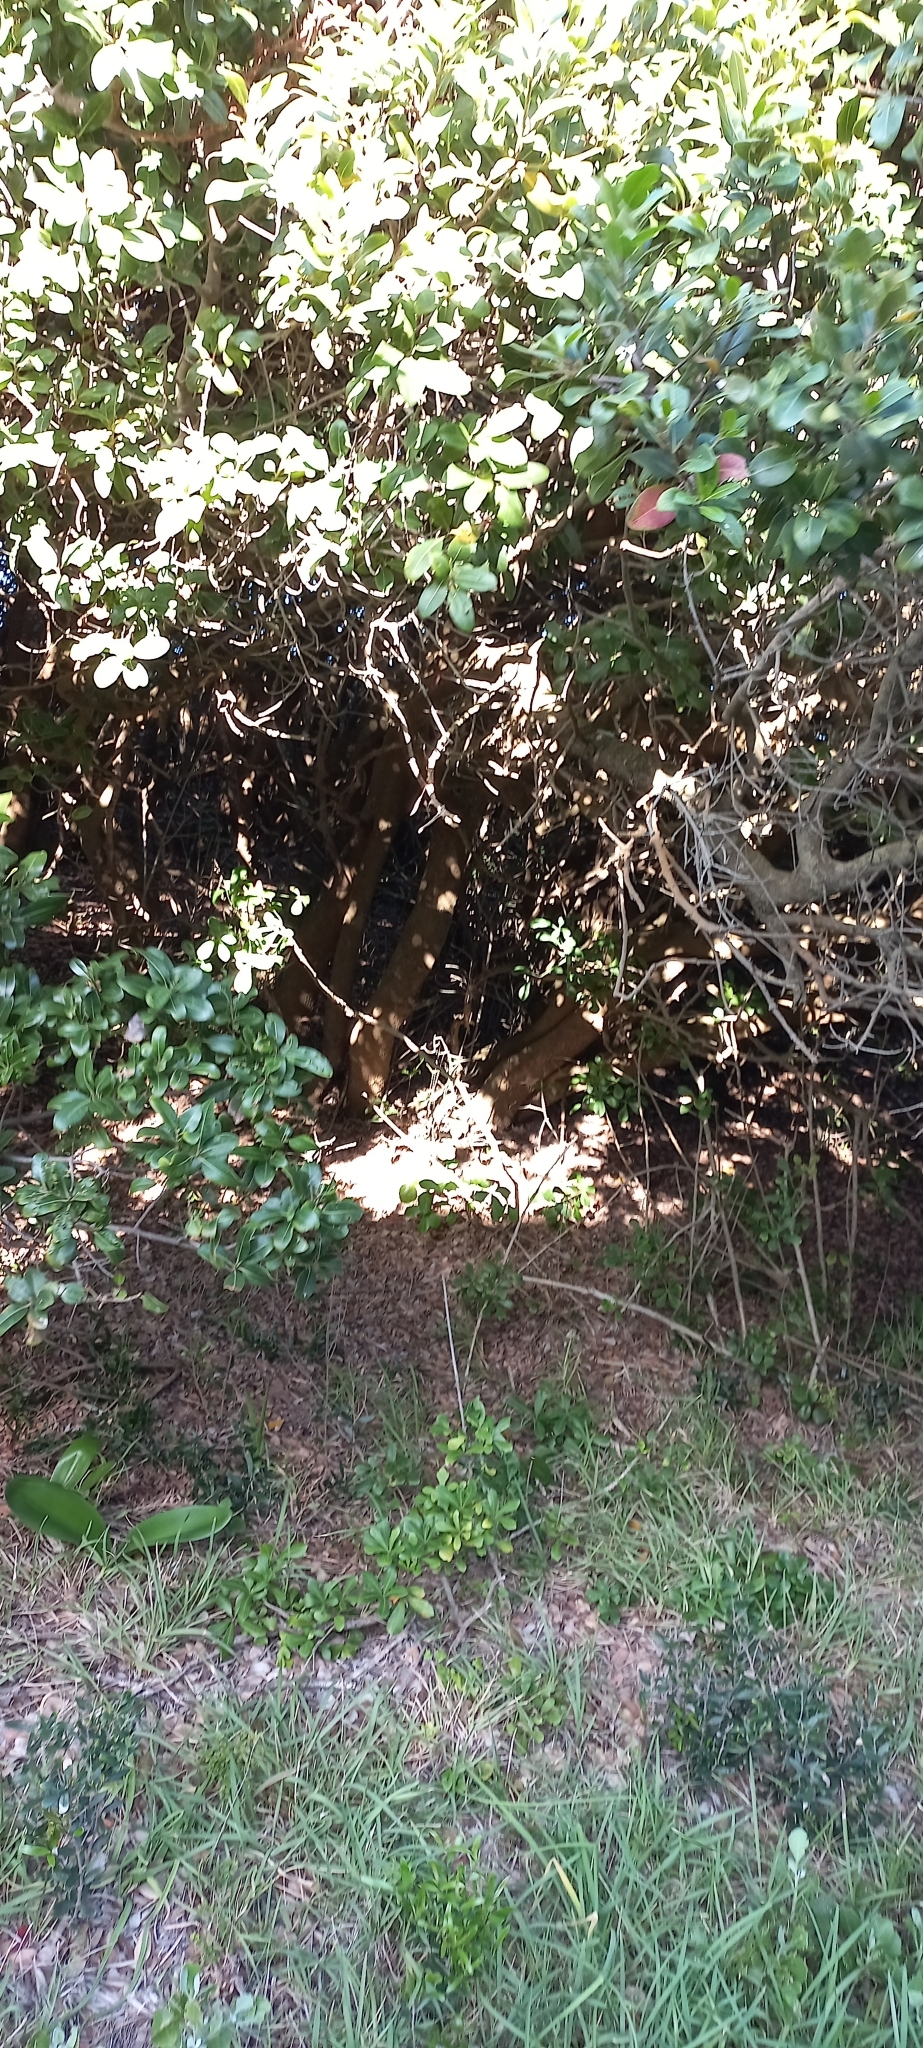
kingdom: Plantae
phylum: Tracheophyta
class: Magnoliopsida
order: Ericales
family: Sapotaceae
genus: Sideroxylon
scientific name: Sideroxylon inerme
